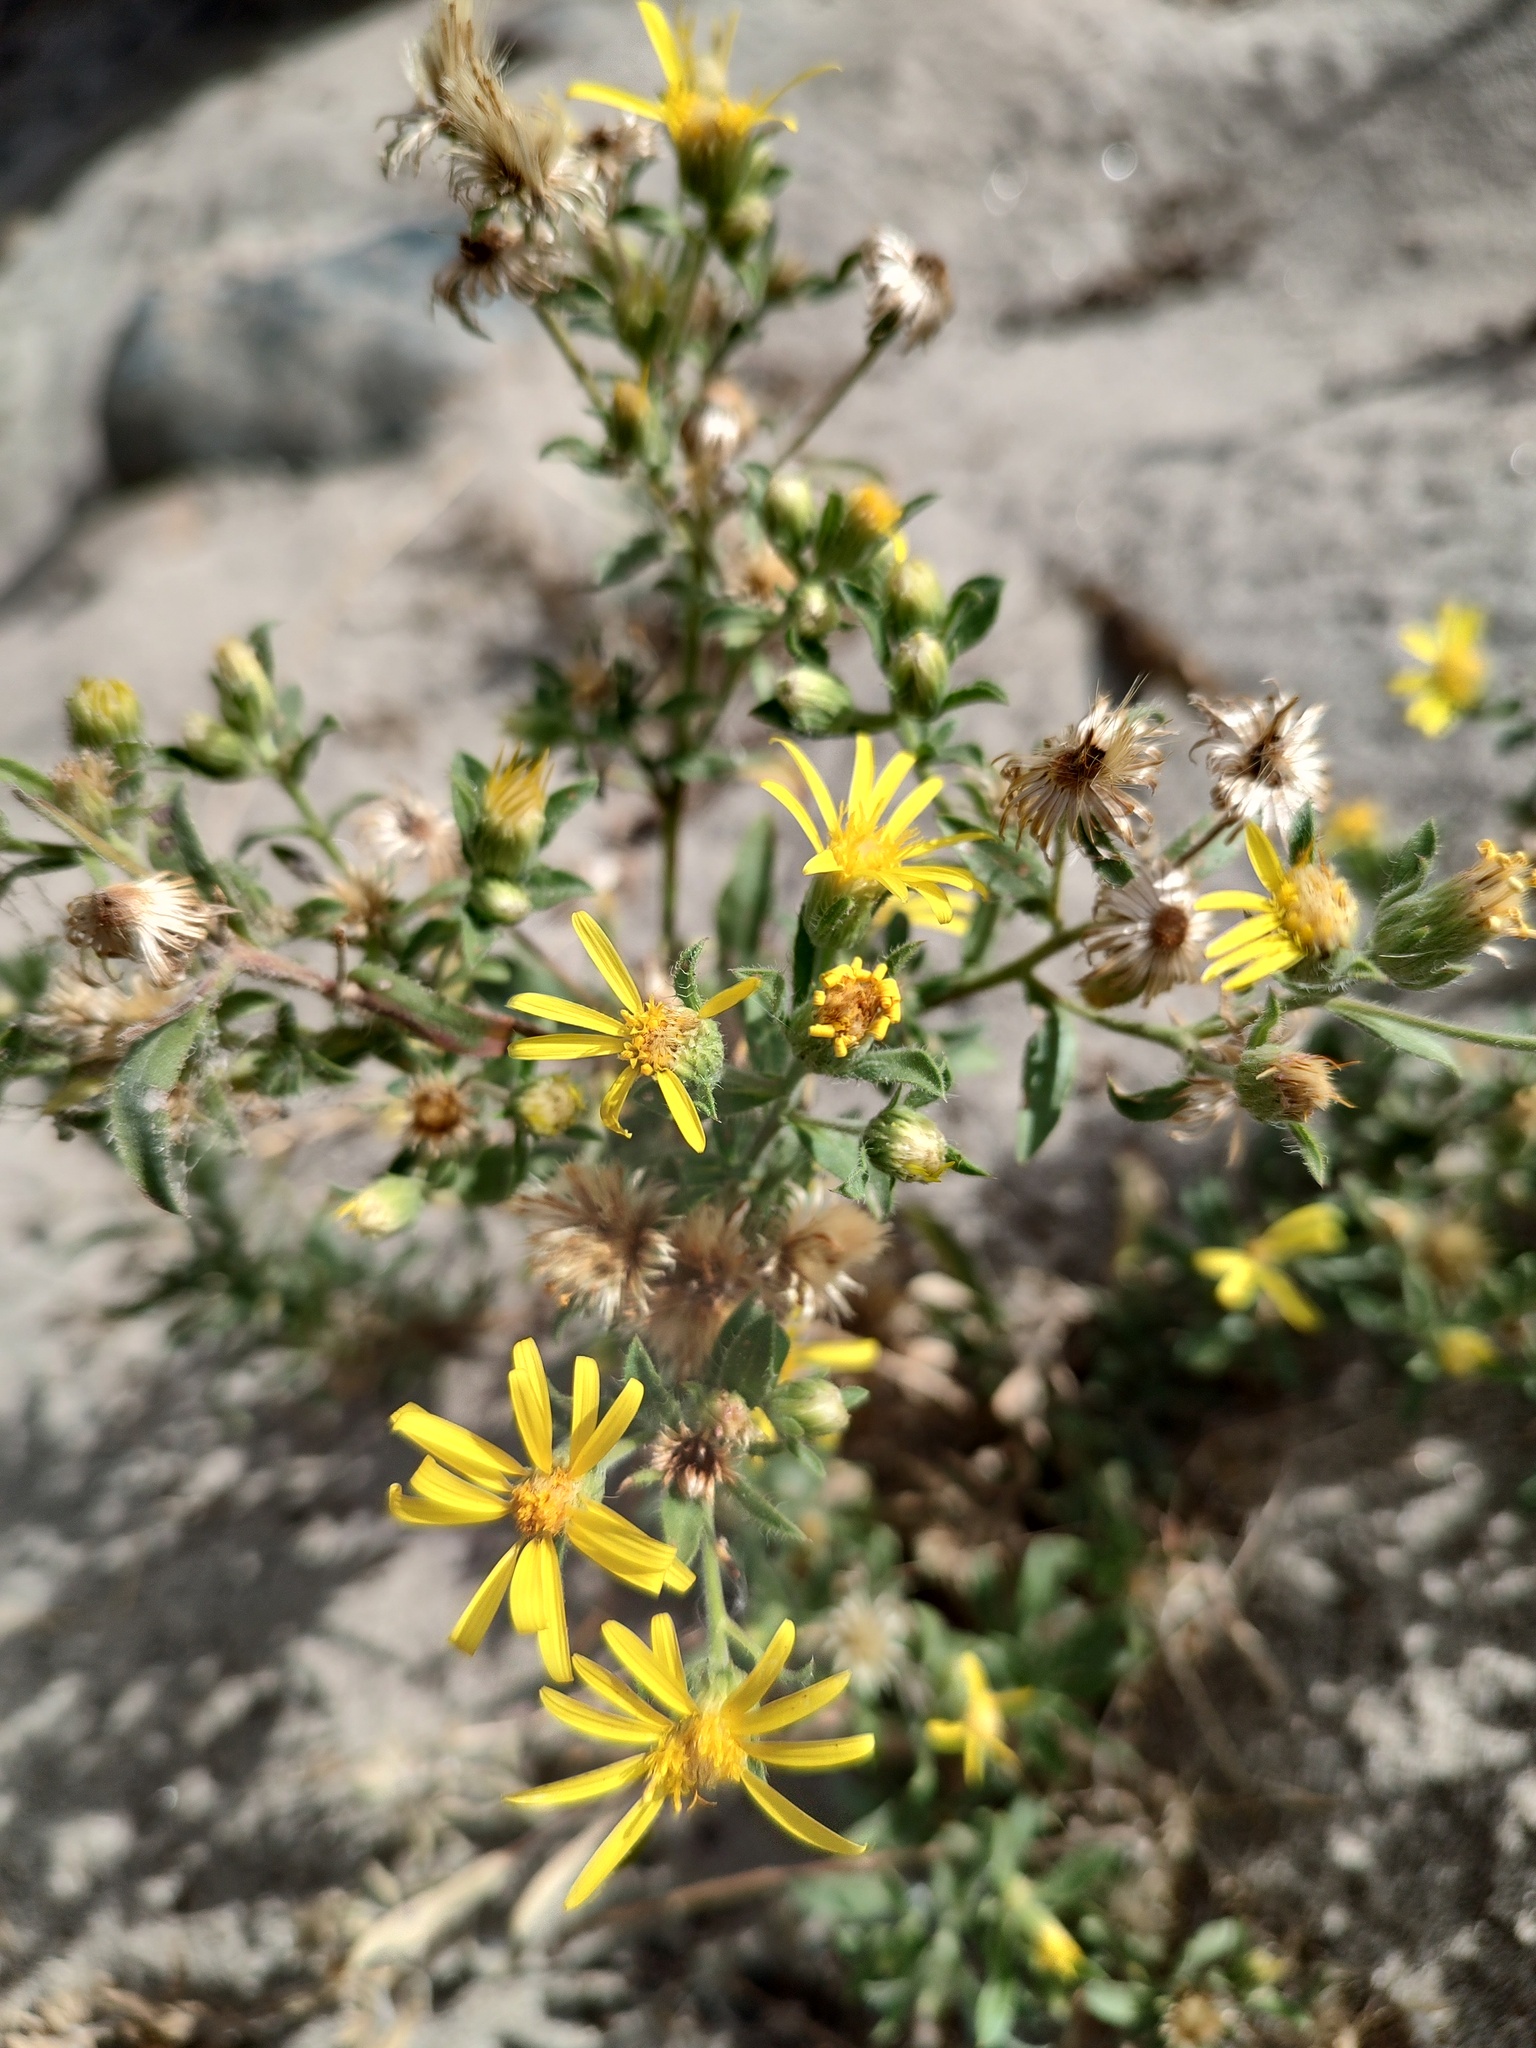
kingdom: Plantae
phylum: Tracheophyta
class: Magnoliopsida
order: Asterales
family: Asteraceae
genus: Heterotheca
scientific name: Heterotheca villosa
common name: Hairy false goldenaster
